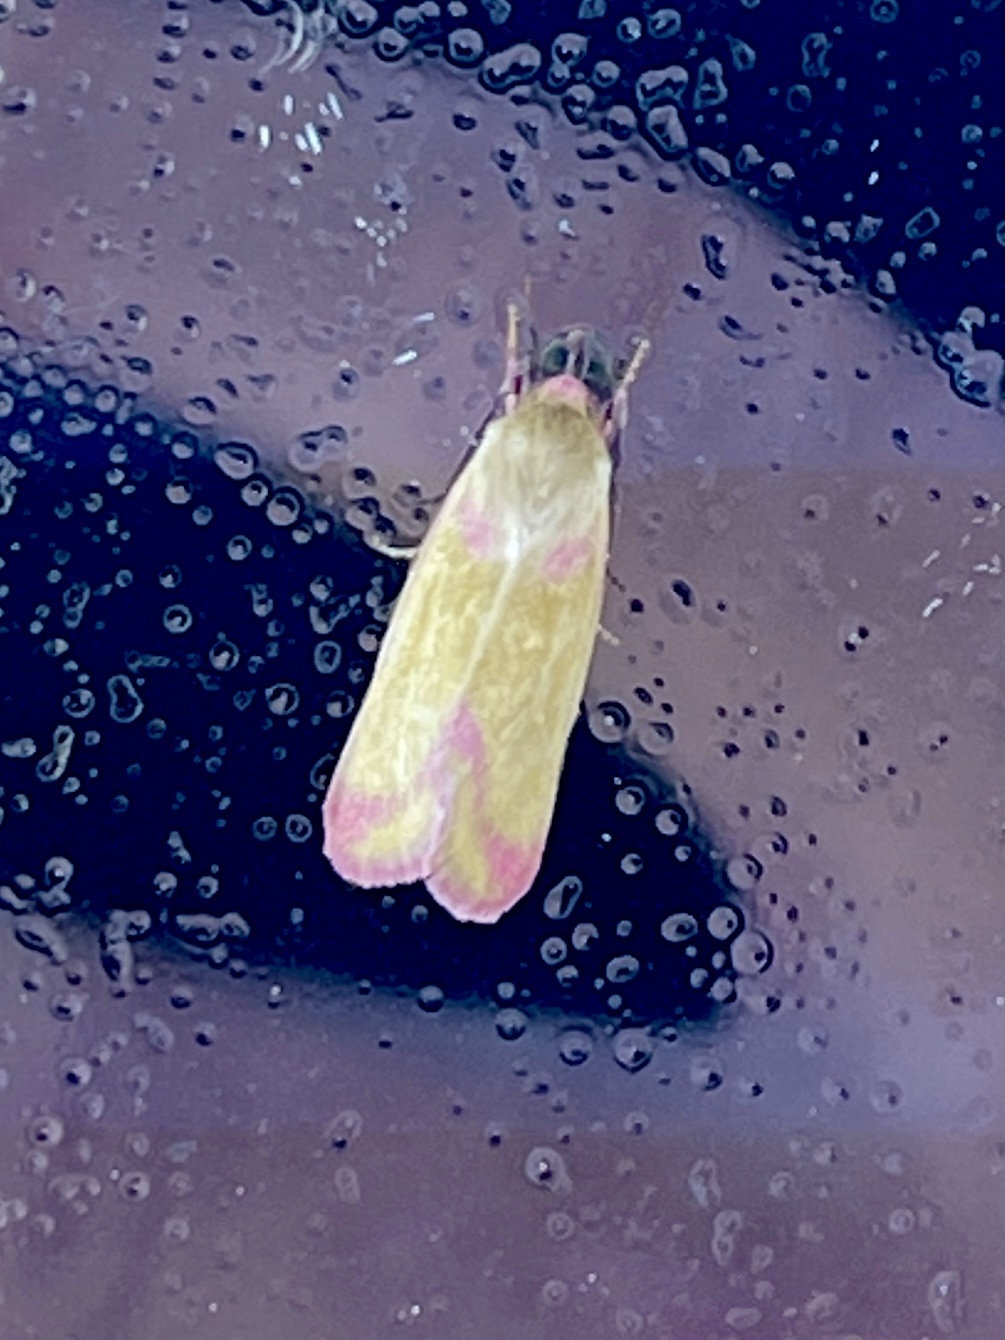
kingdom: Animalia
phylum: Arthropoda
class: Insecta
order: Lepidoptera
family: Noctuidae
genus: Heliocheilus
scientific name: Heliocheilus toralis
